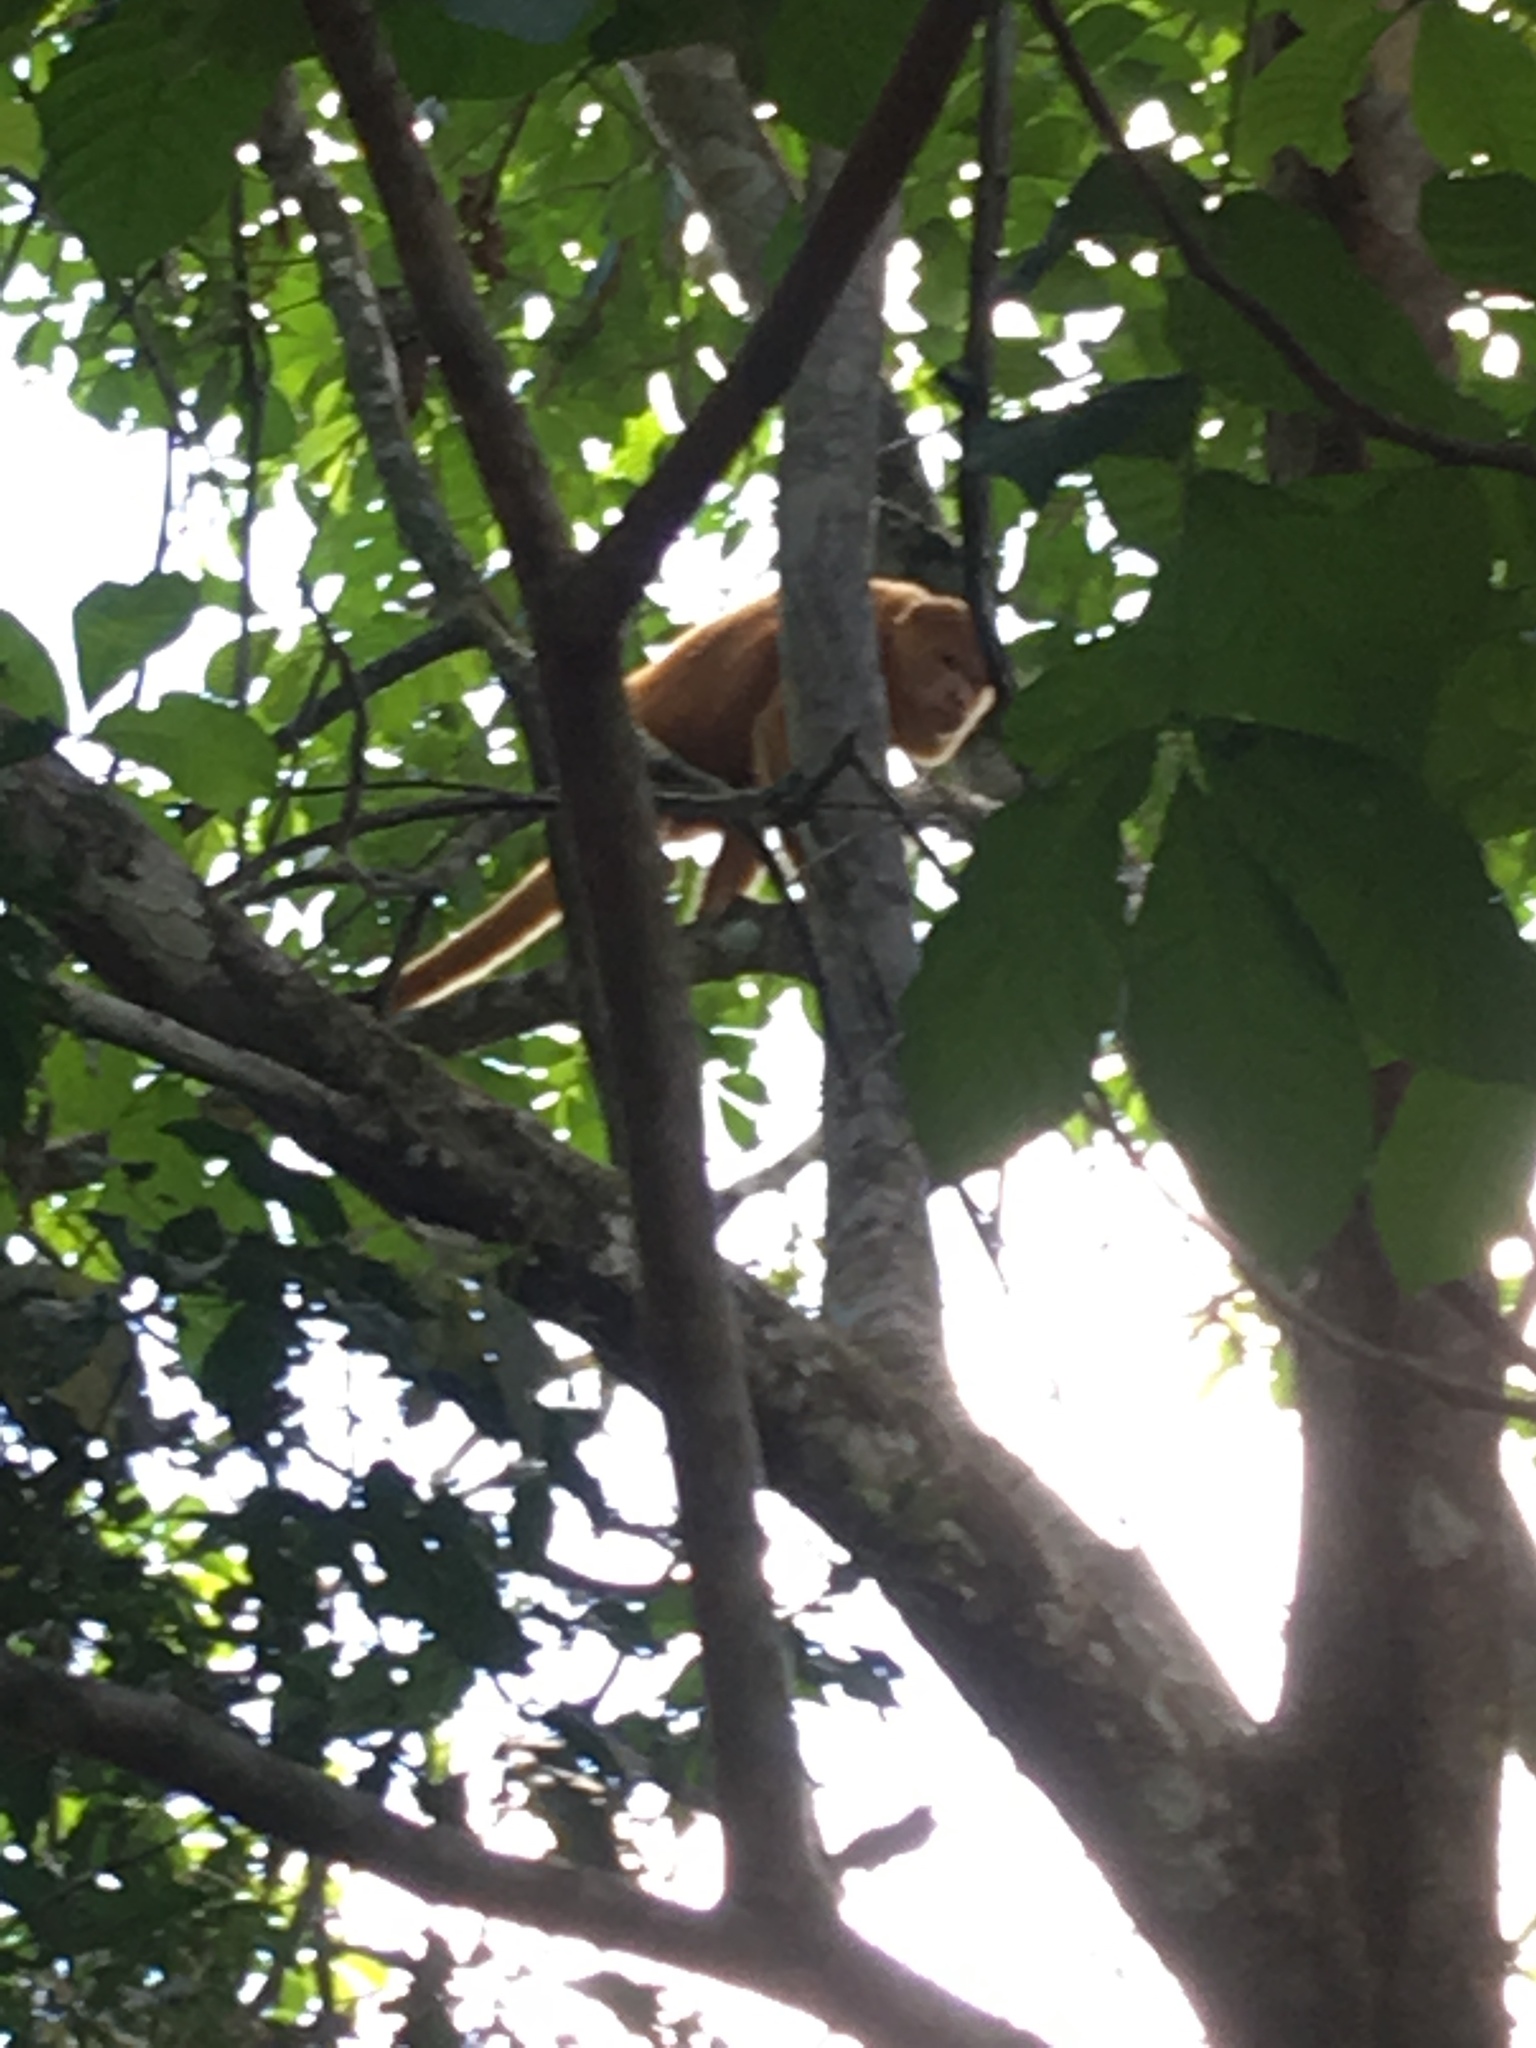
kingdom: Animalia
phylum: Chordata
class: Mammalia
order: Primates
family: Atelidae
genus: Alouatta
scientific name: Alouatta palliata
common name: Mantled howler
